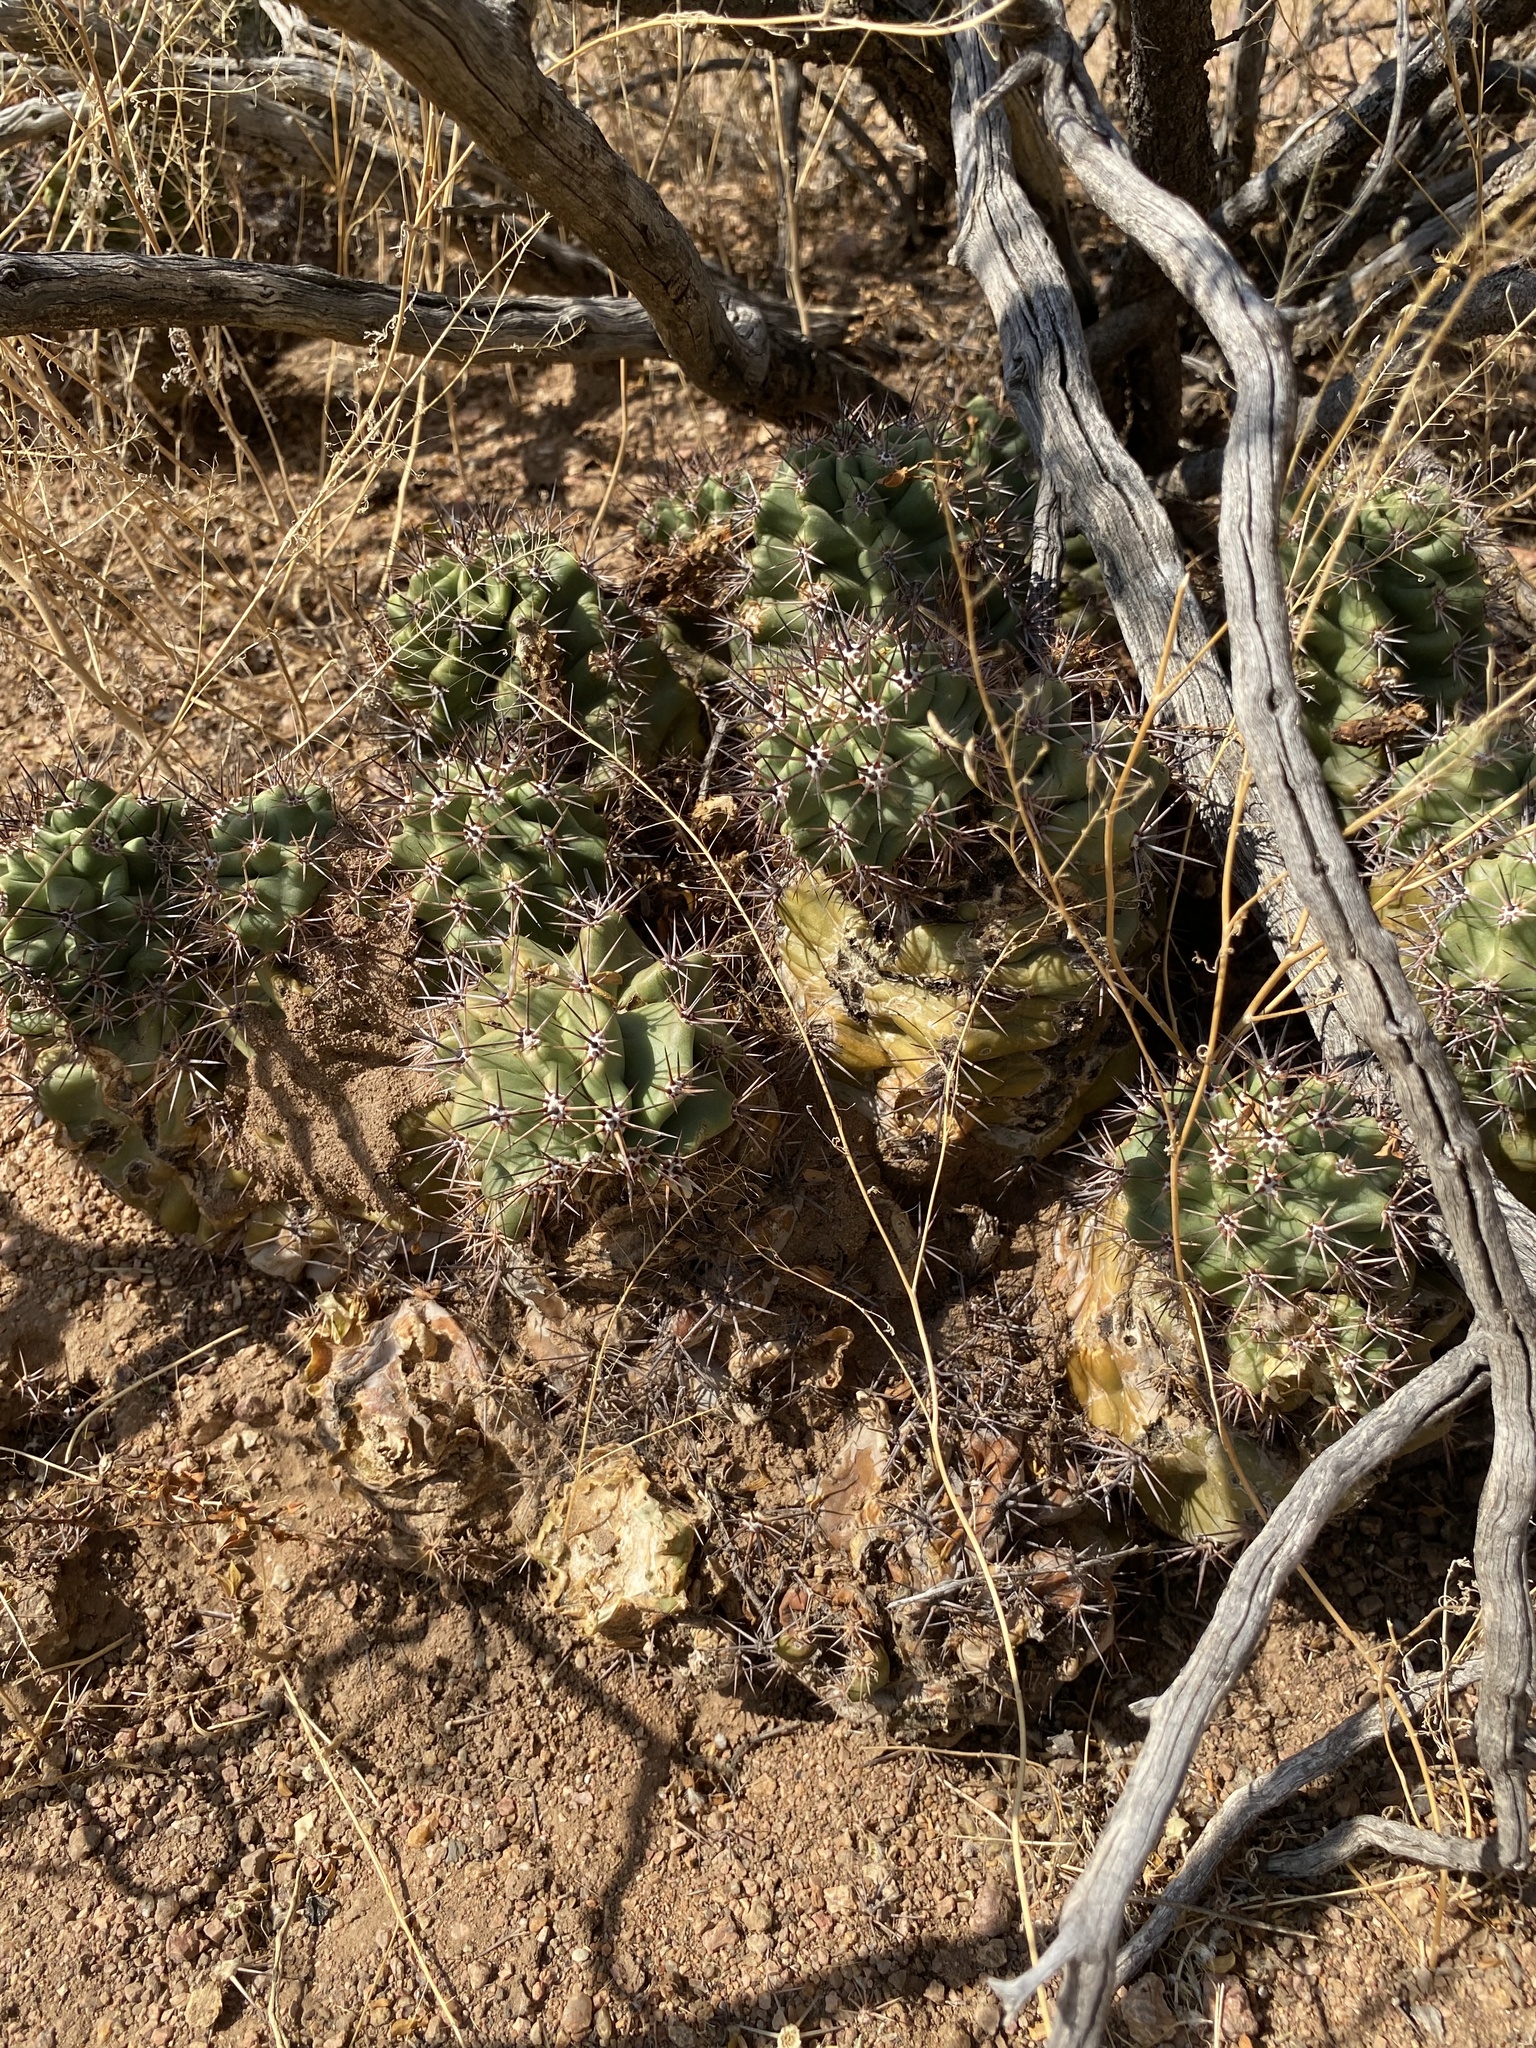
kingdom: Plantae
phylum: Tracheophyta
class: Magnoliopsida
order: Caryophyllales
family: Cactaceae
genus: Echinocereus
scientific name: Echinocereus coccineus
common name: Scarlet hedgehog cactus
